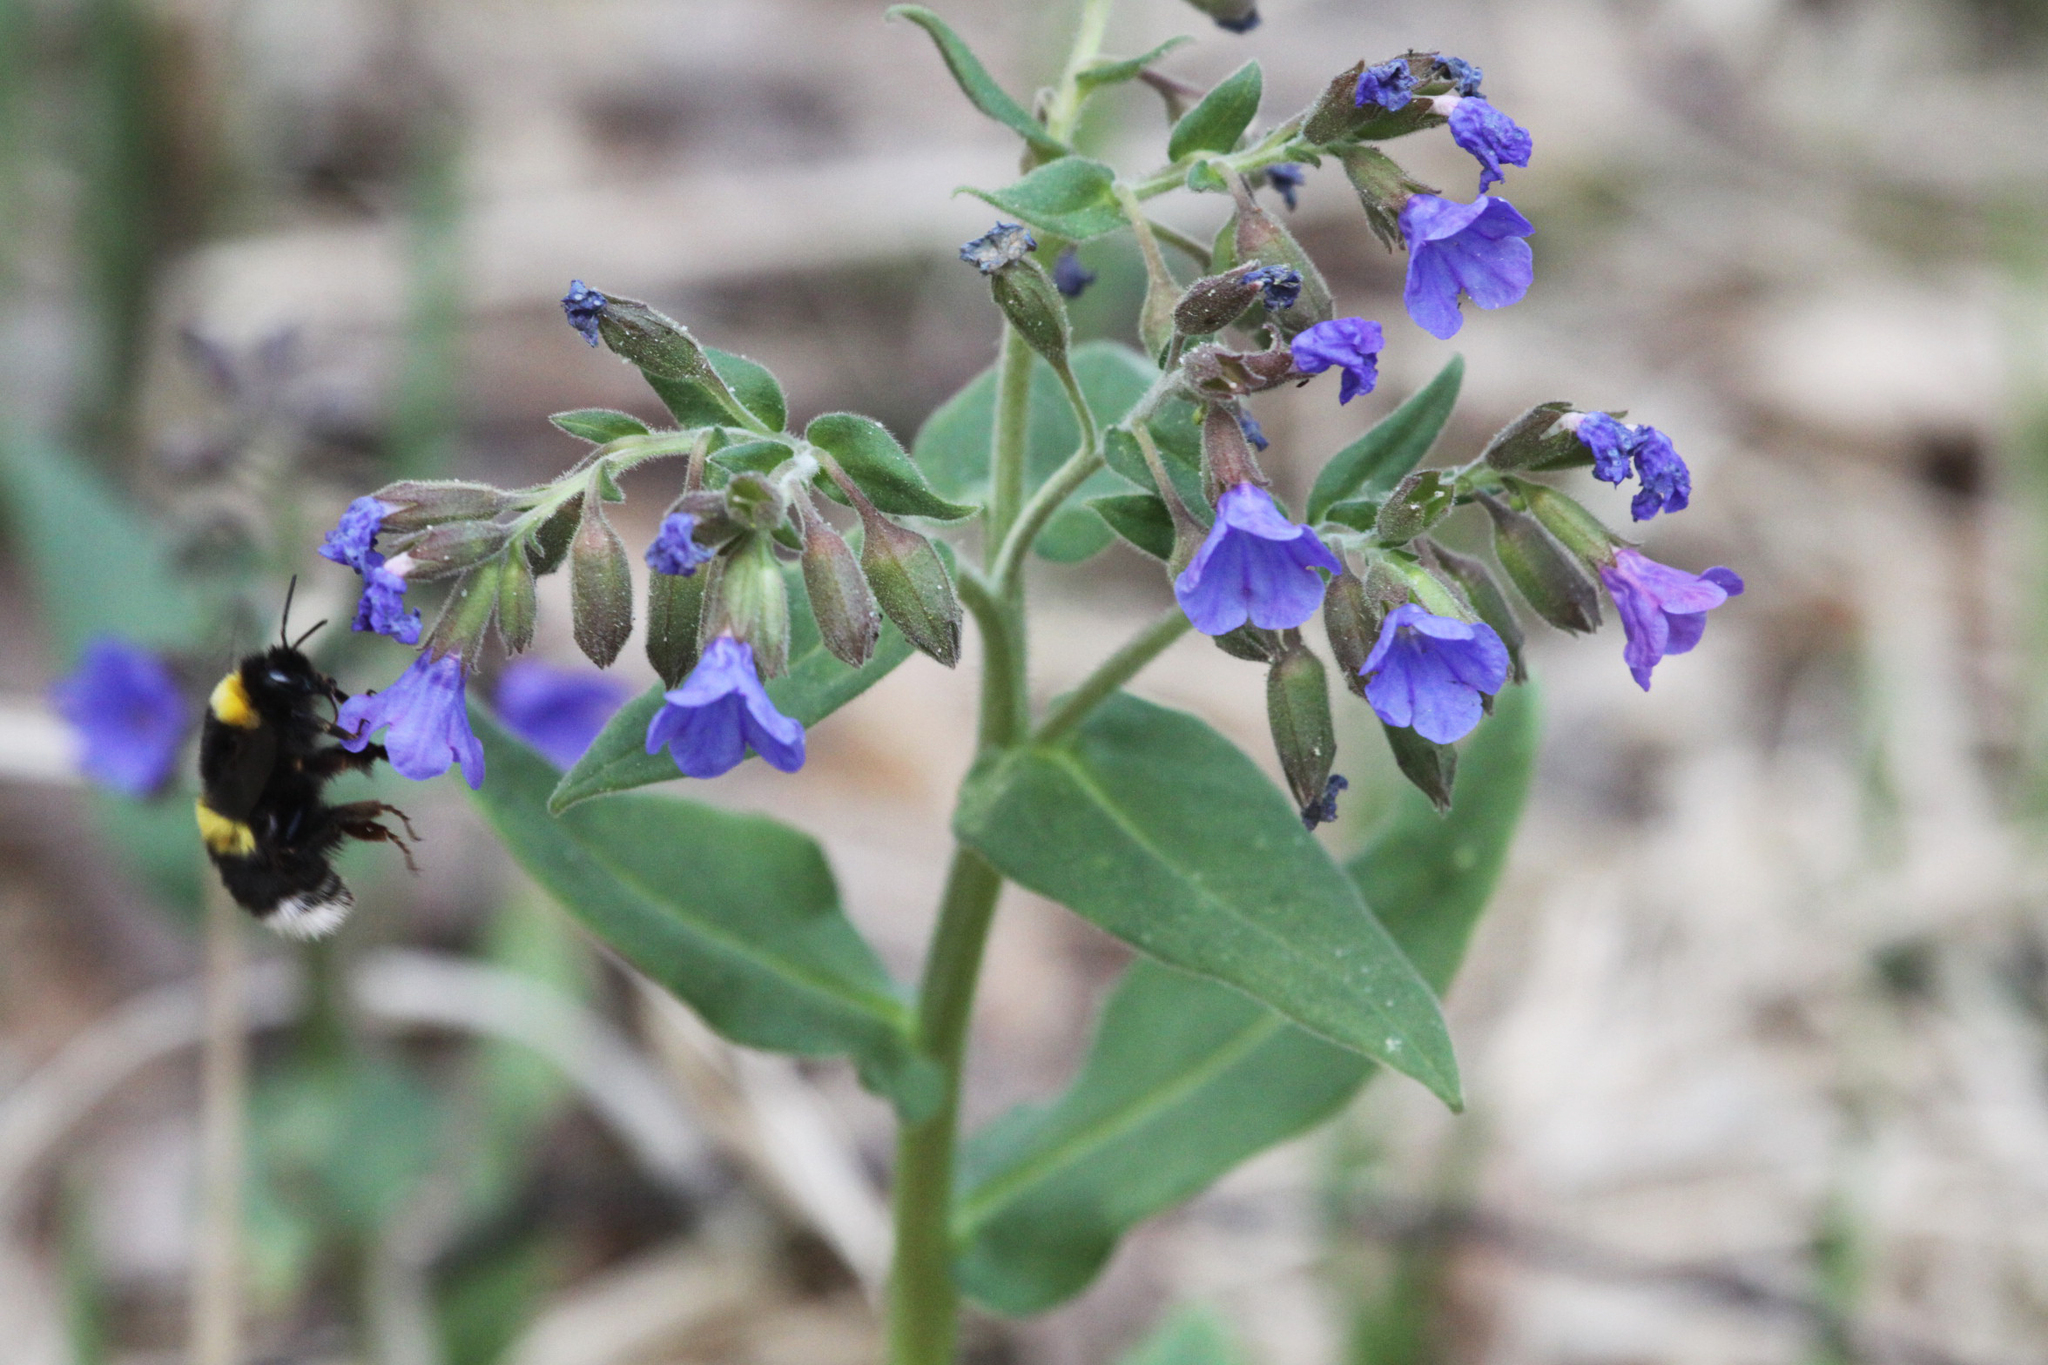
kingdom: Animalia
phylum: Arthropoda
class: Insecta
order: Hymenoptera
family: Apidae
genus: Bombus
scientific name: Bombus
